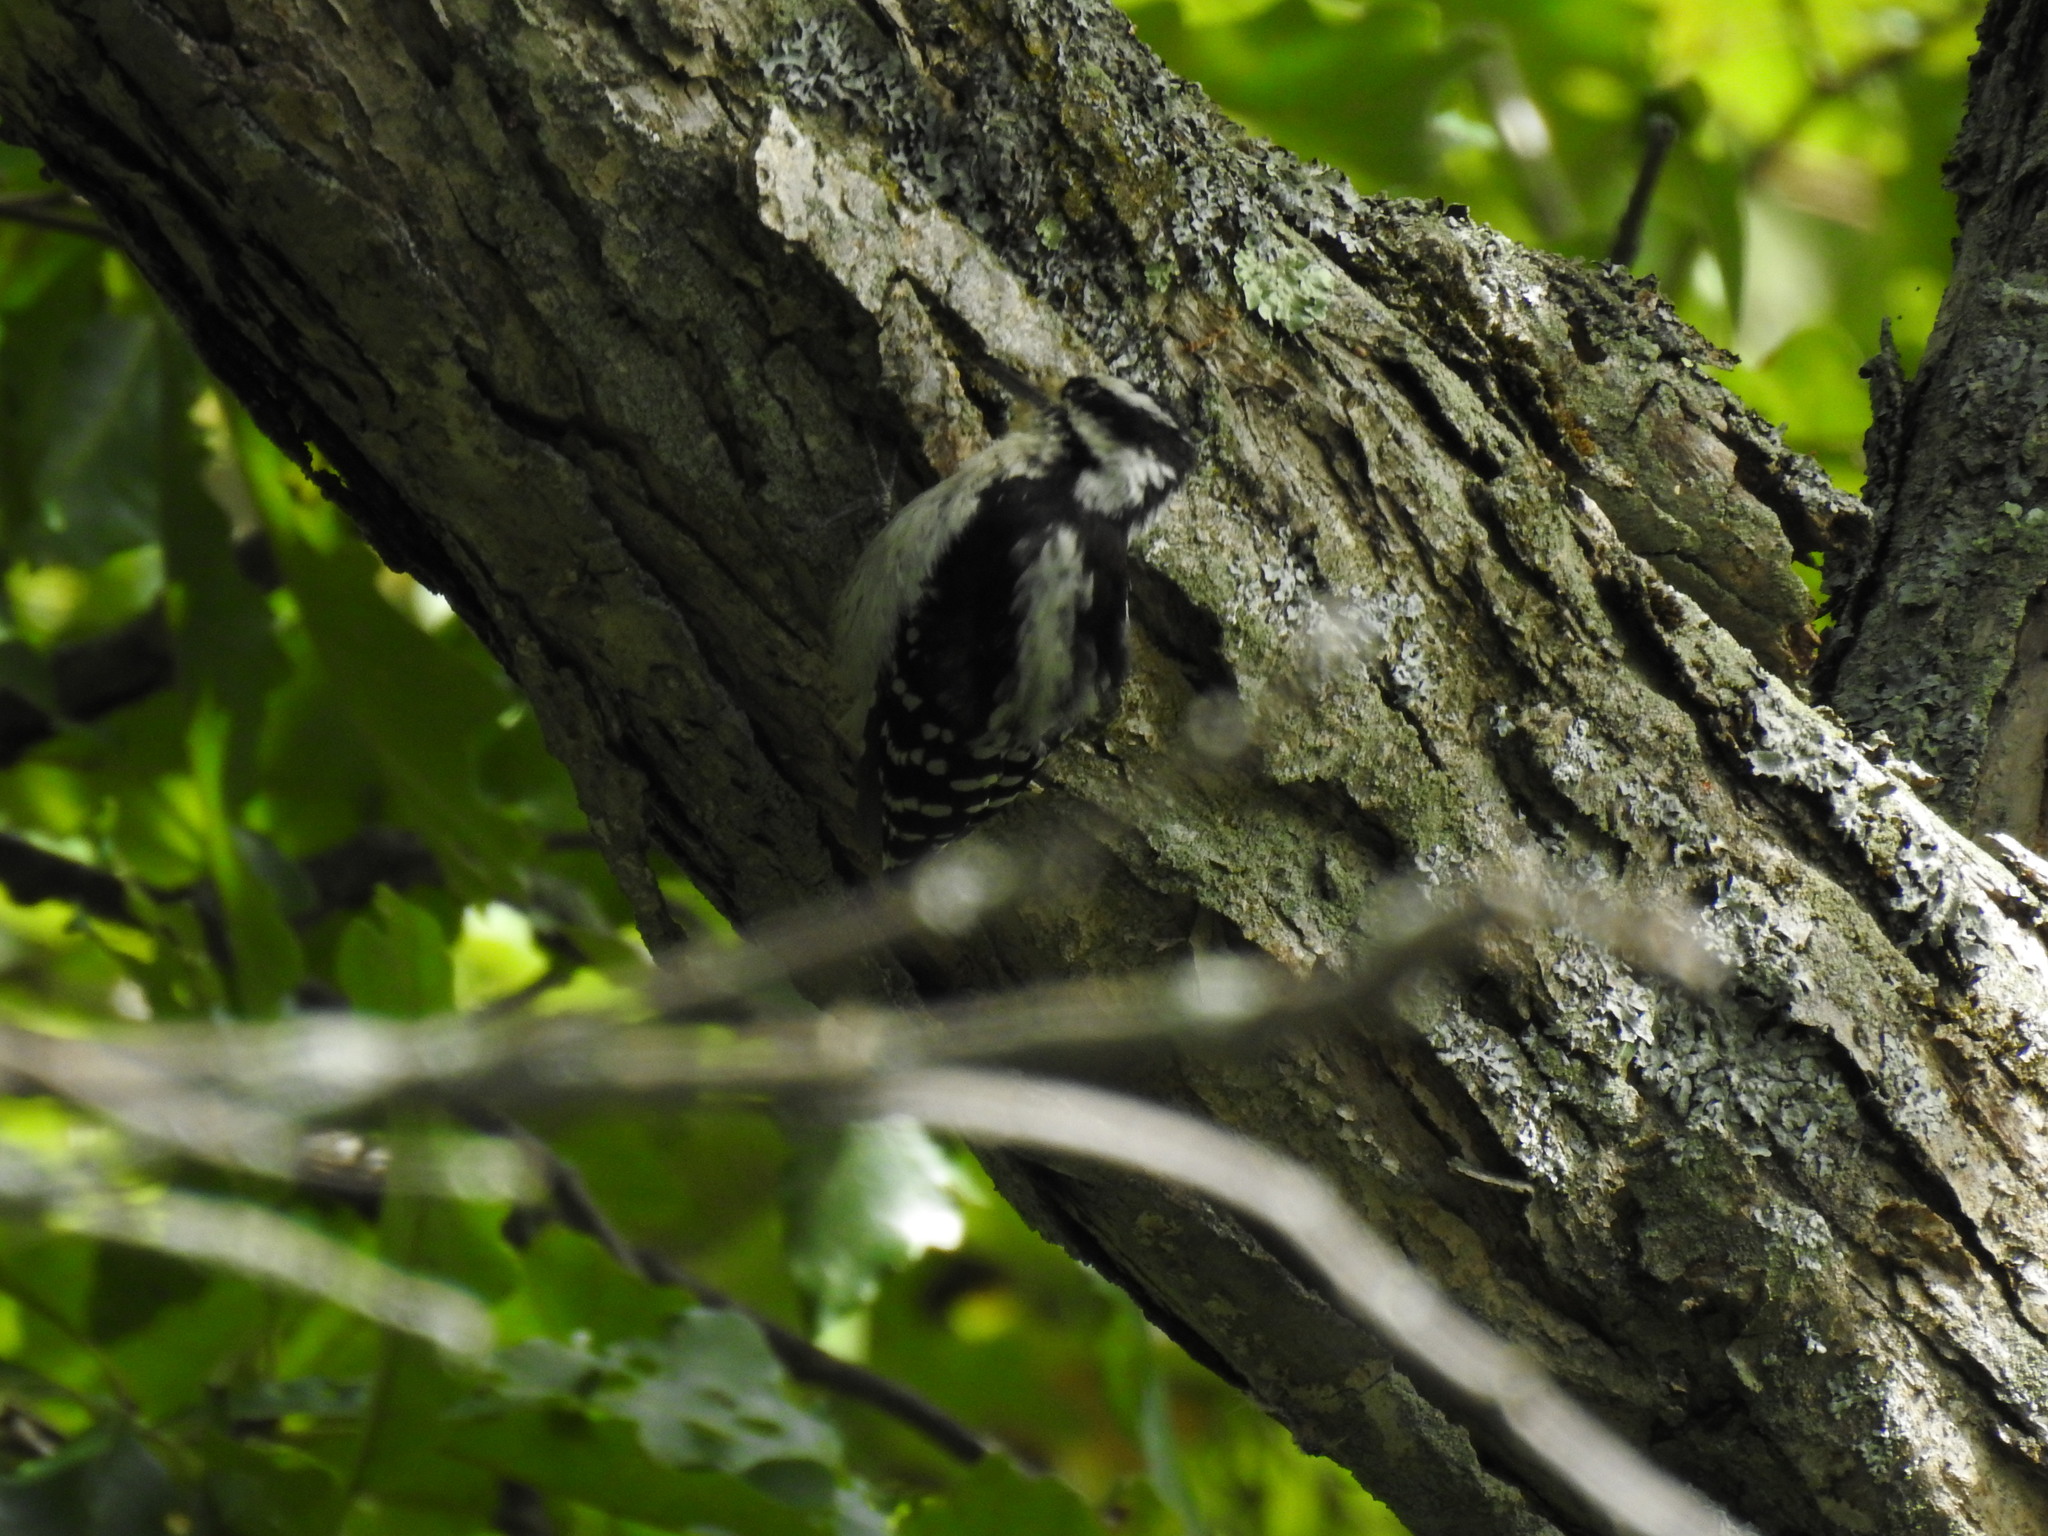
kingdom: Animalia
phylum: Chordata
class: Aves
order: Piciformes
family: Picidae
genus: Dryobates
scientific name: Dryobates pubescens
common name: Downy woodpecker
